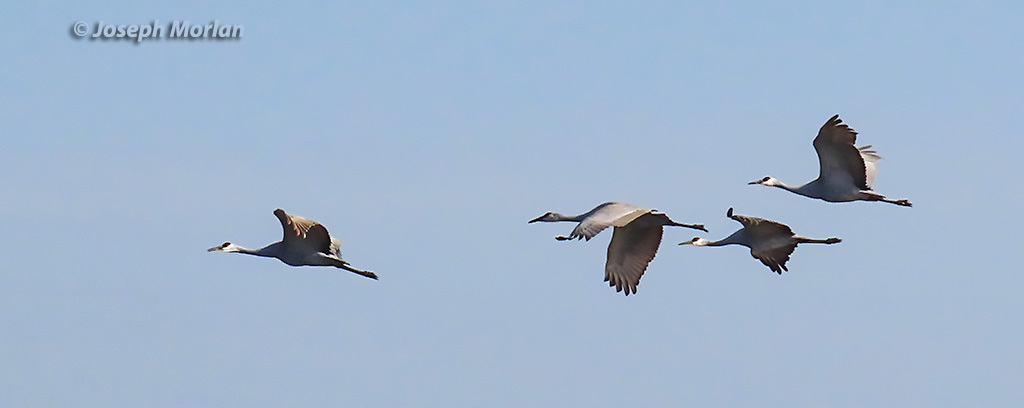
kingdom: Animalia
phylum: Chordata
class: Aves
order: Gruiformes
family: Gruidae
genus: Grus
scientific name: Grus canadensis
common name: Sandhill crane
